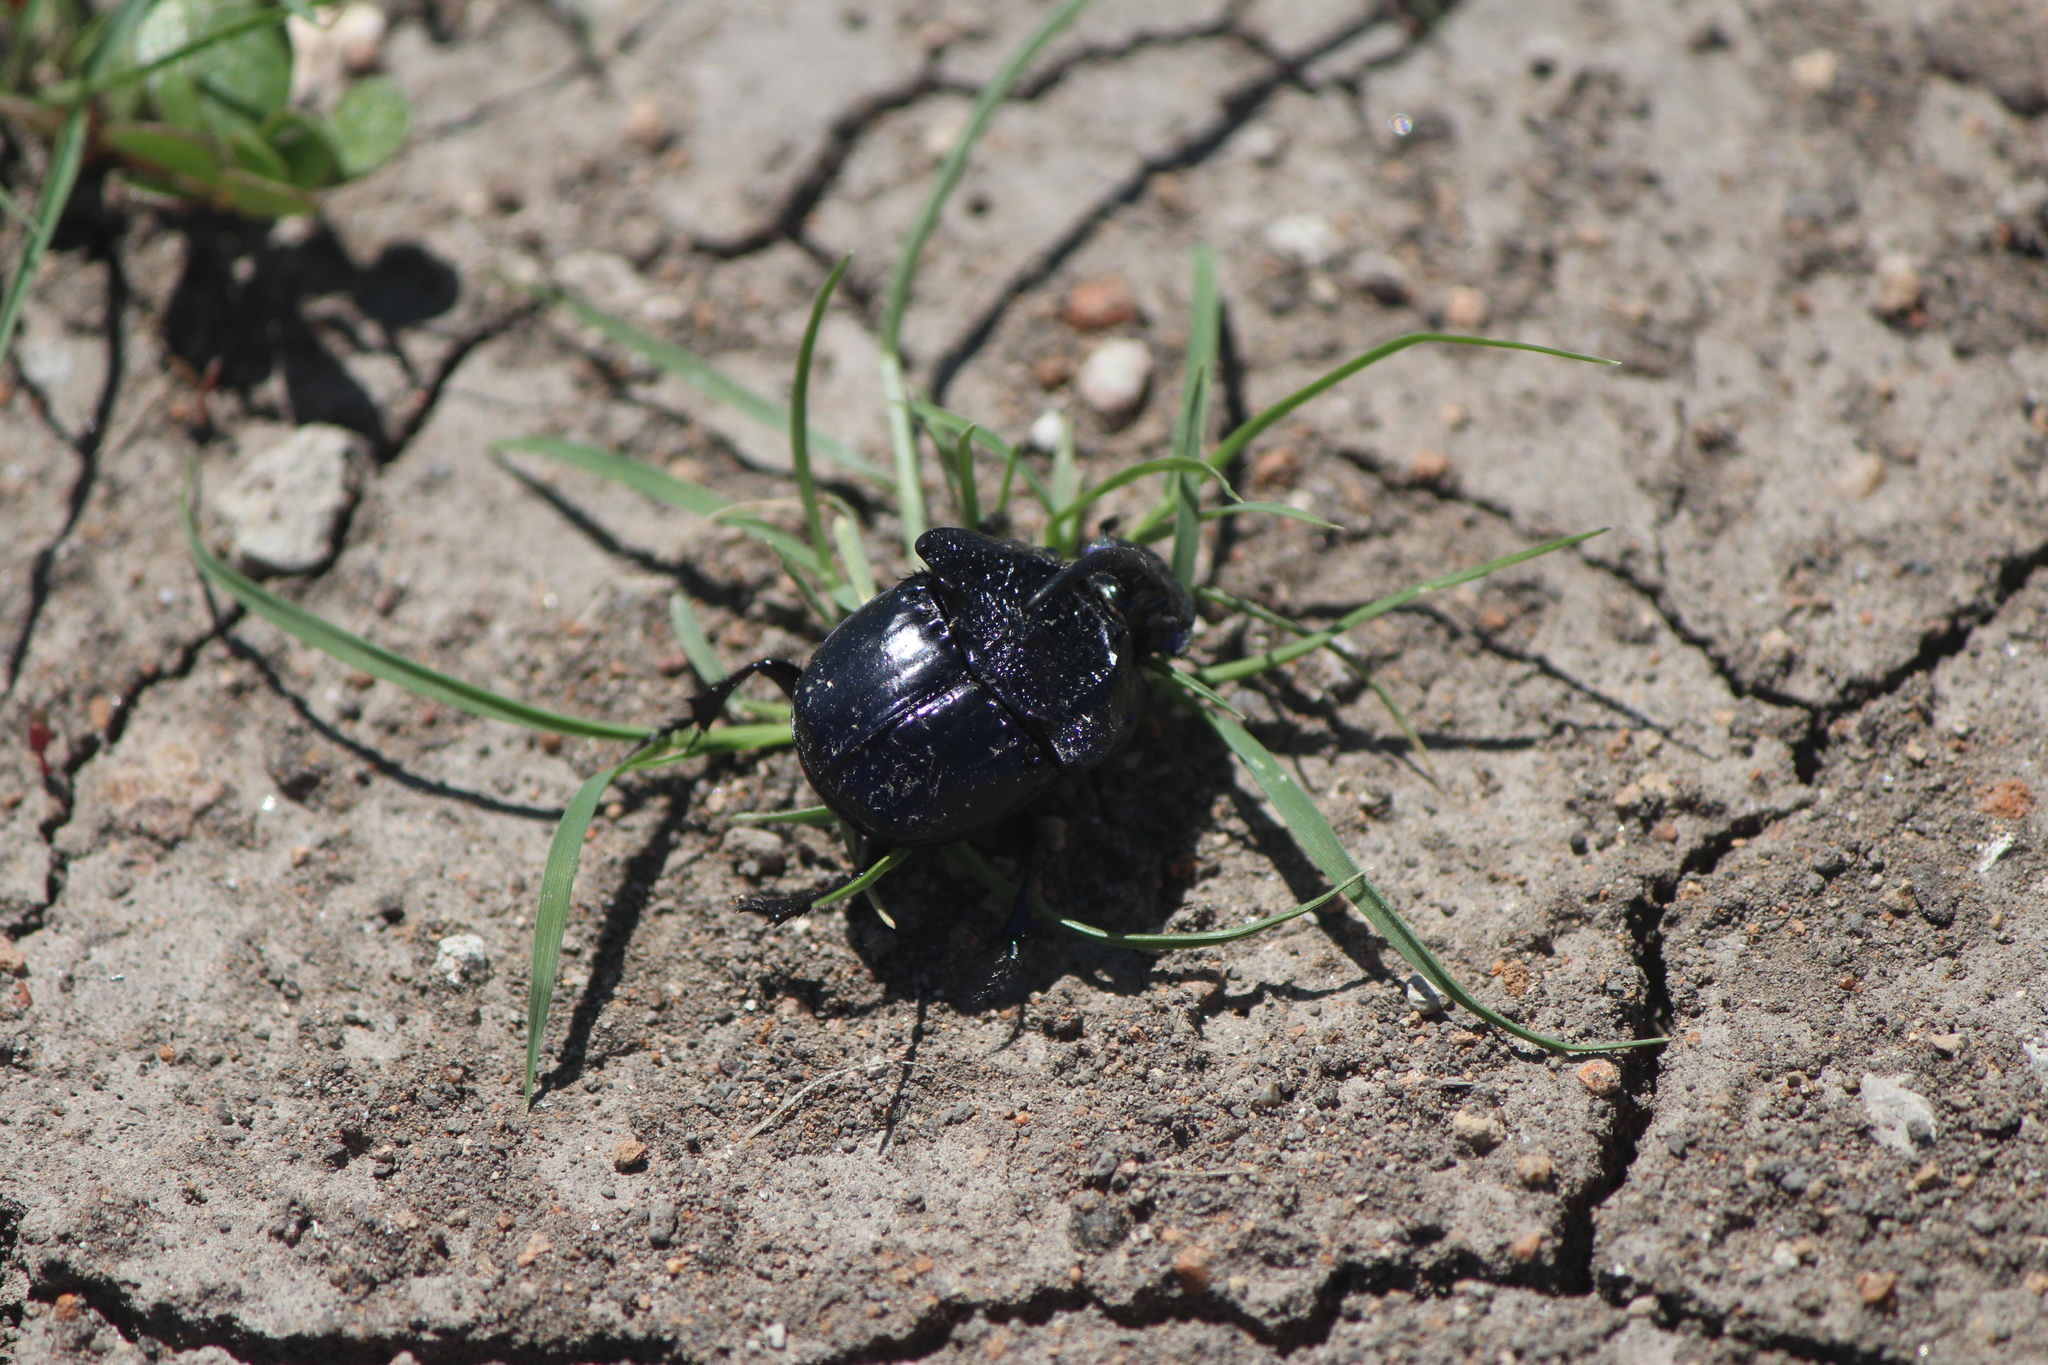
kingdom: Animalia
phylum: Arthropoda
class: Insecta
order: Coleoptera
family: Scarabaeidae
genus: Phanaeus
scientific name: Phanaeus quadridens
